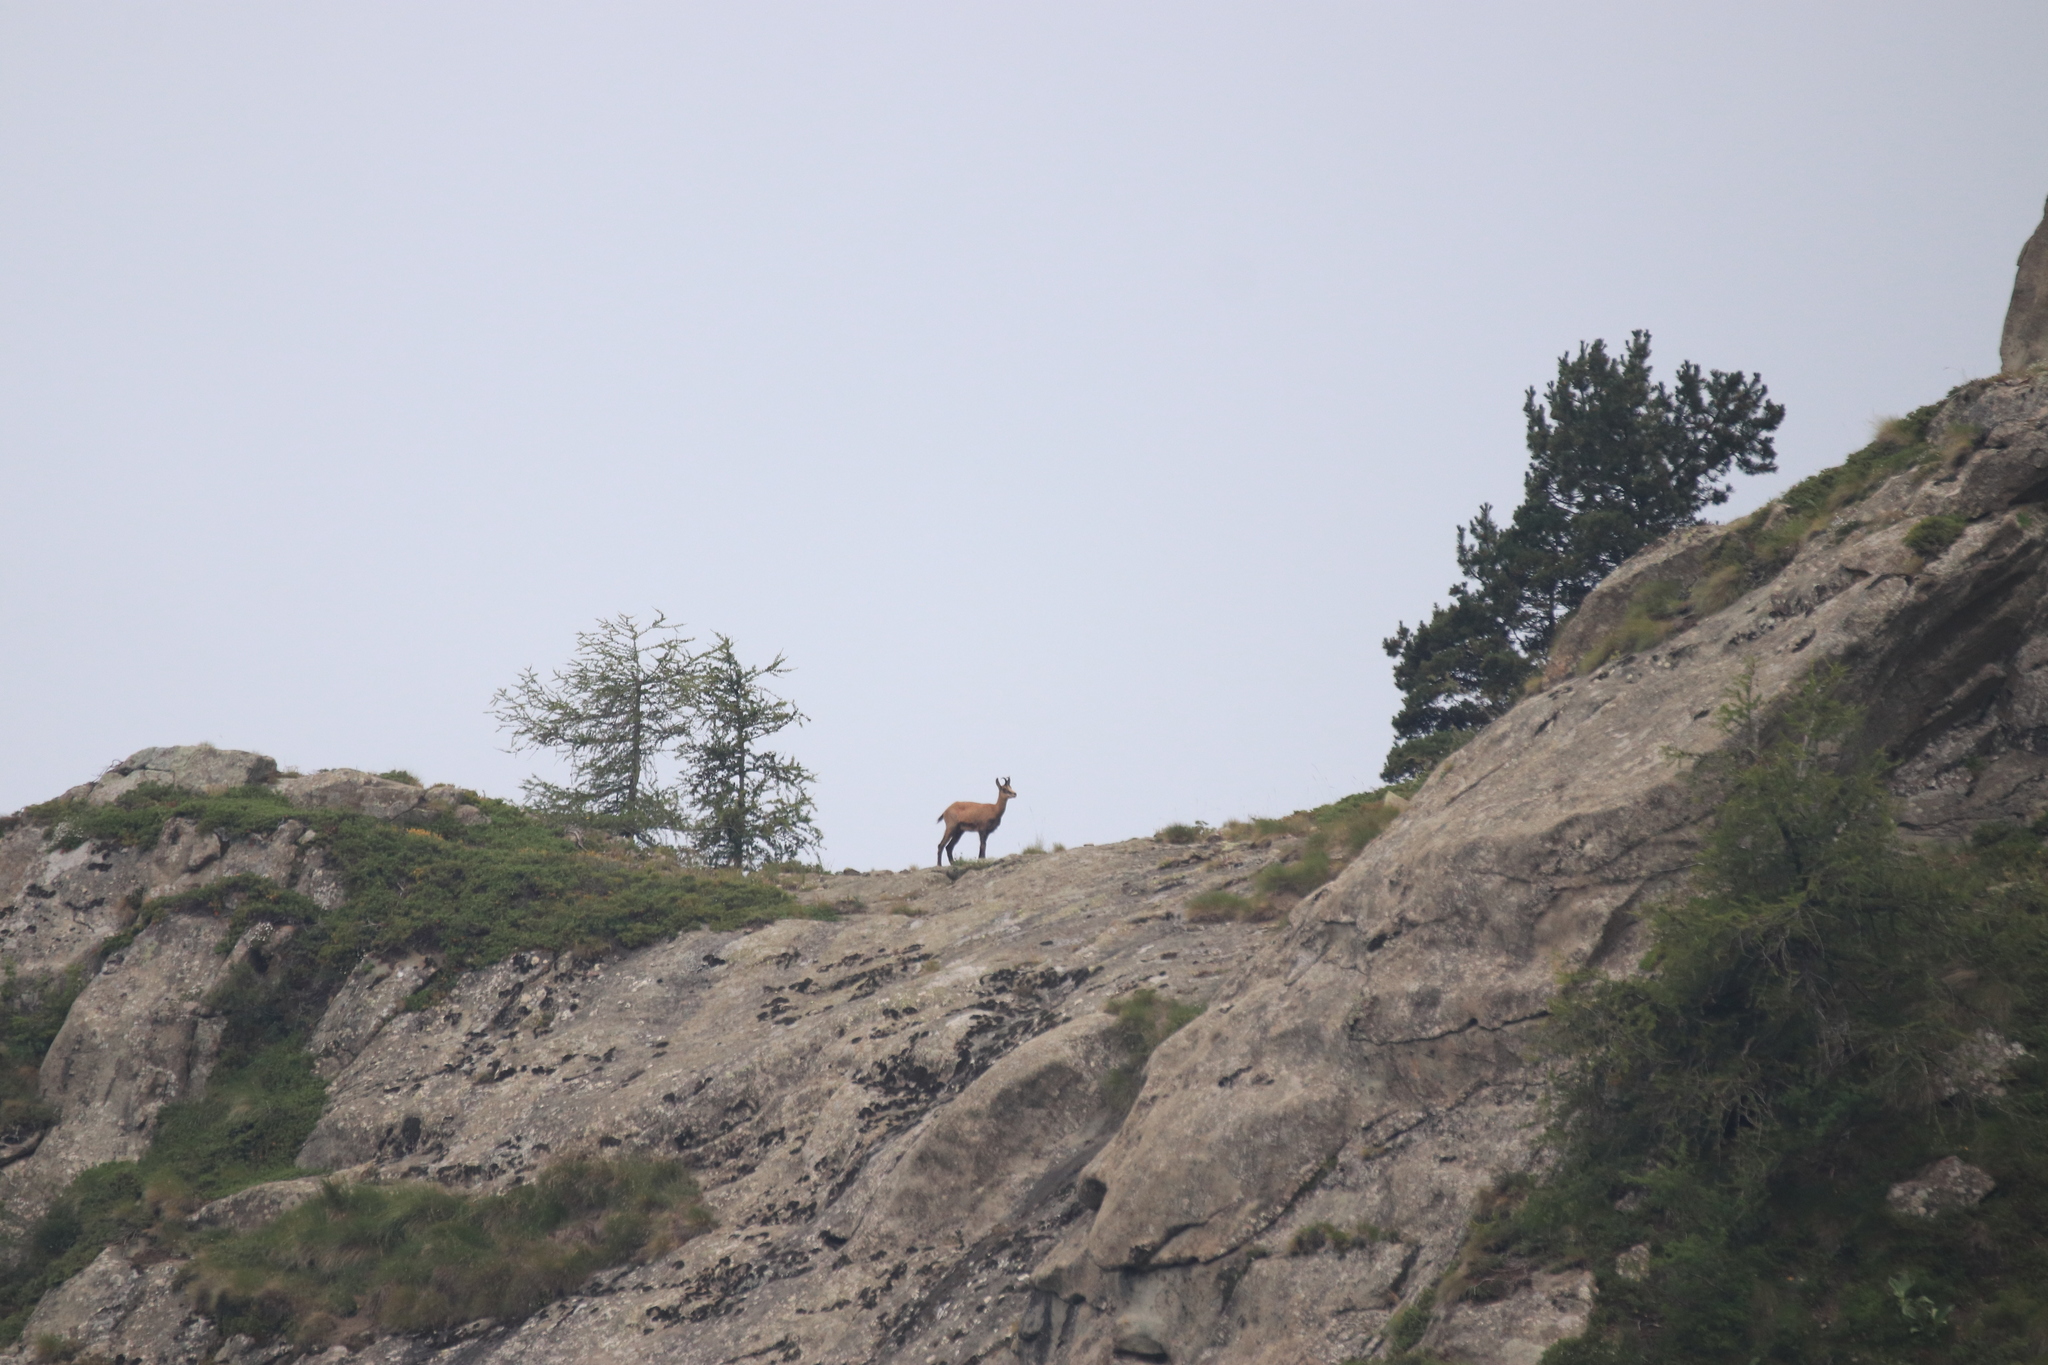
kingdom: Animalia
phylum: Chordata
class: Mammalia
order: Artiodactyla
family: Bovidae
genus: Rupicapra
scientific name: Rupicapra rupicapra
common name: Chamois
